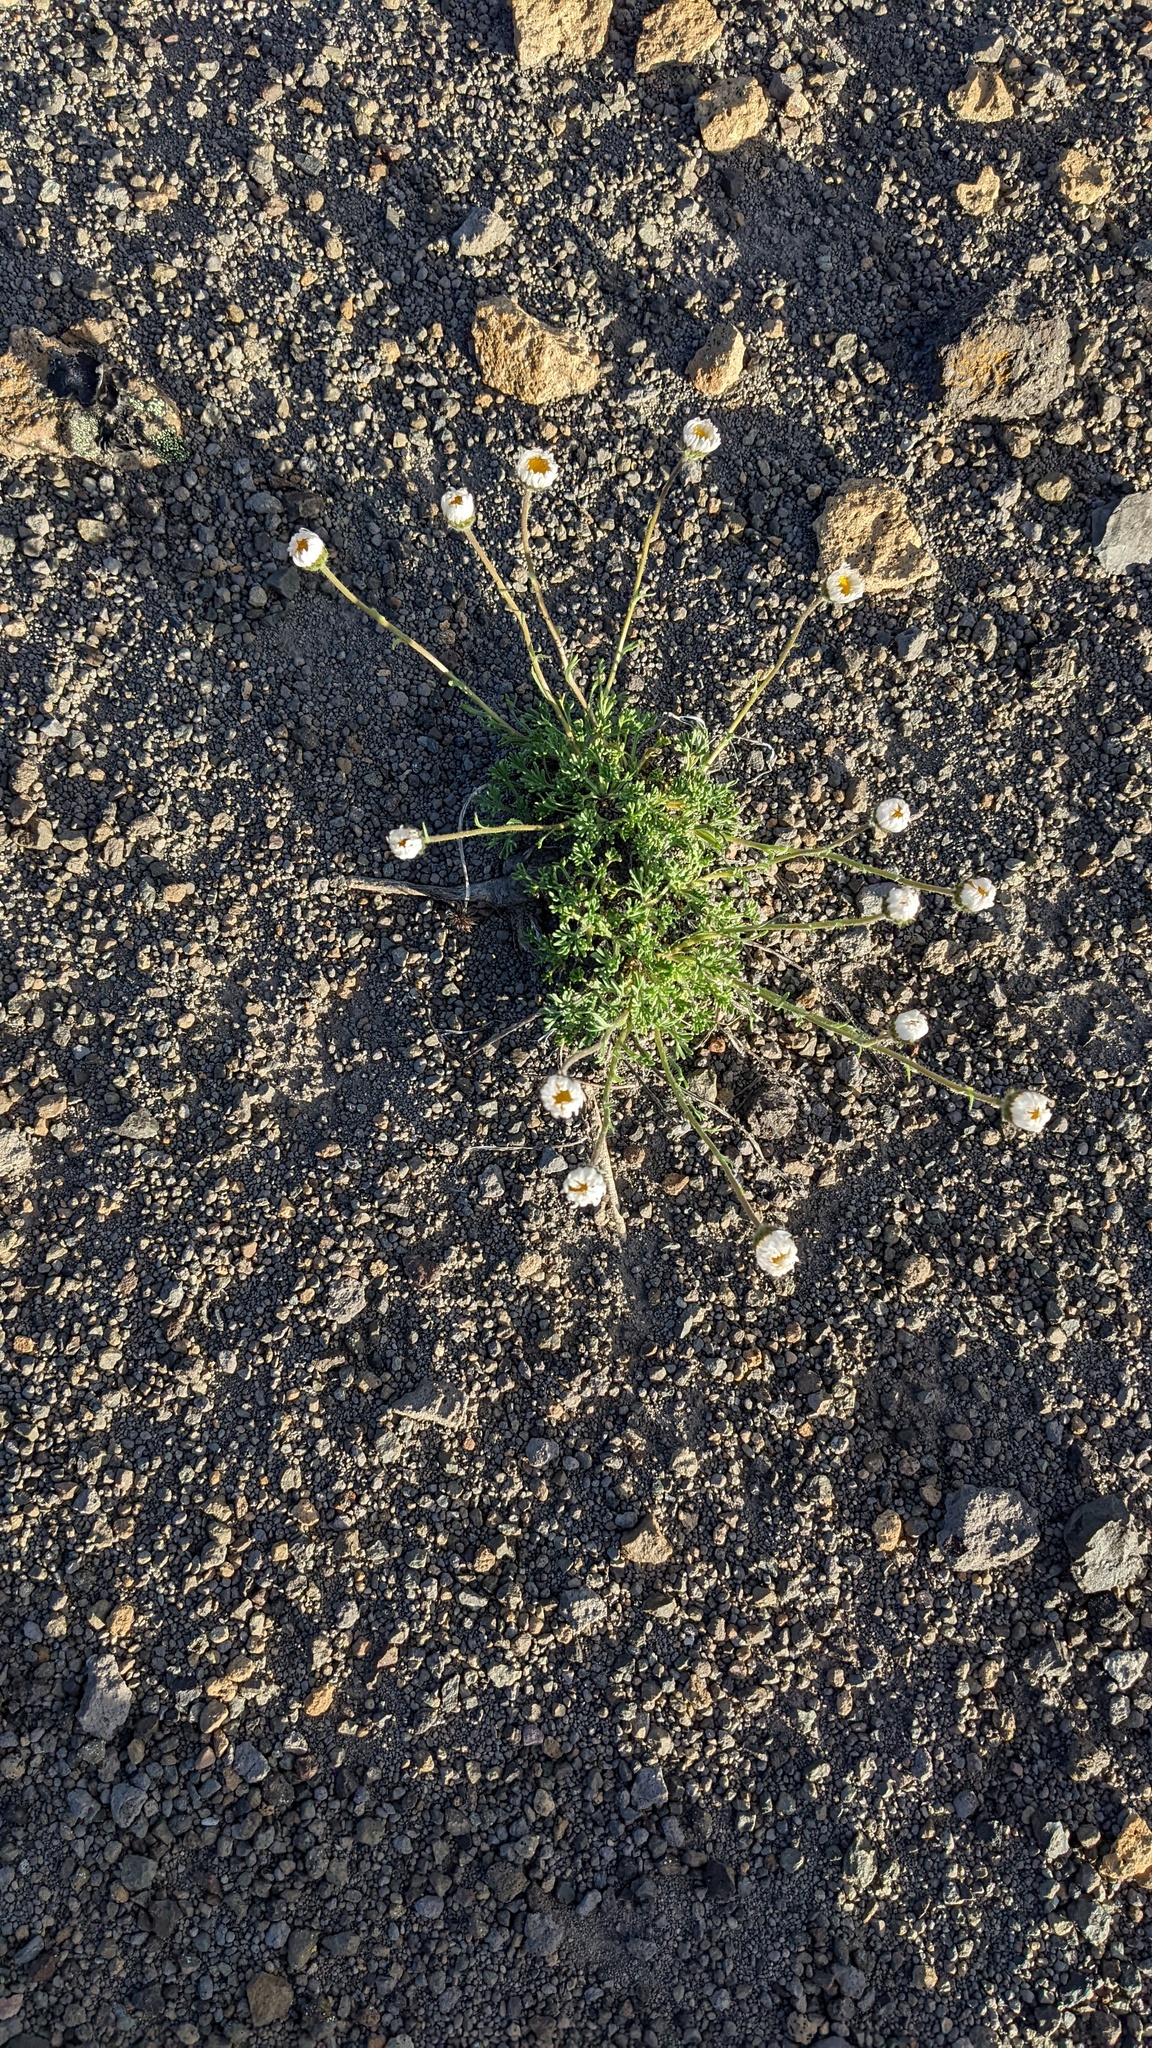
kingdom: Plantae
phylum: Tracheophyta
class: Magnoliopsida
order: Asterales
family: Asteraceae
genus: Erigeron
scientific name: Erigeron compositus
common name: Dwarf mountain fleabane
